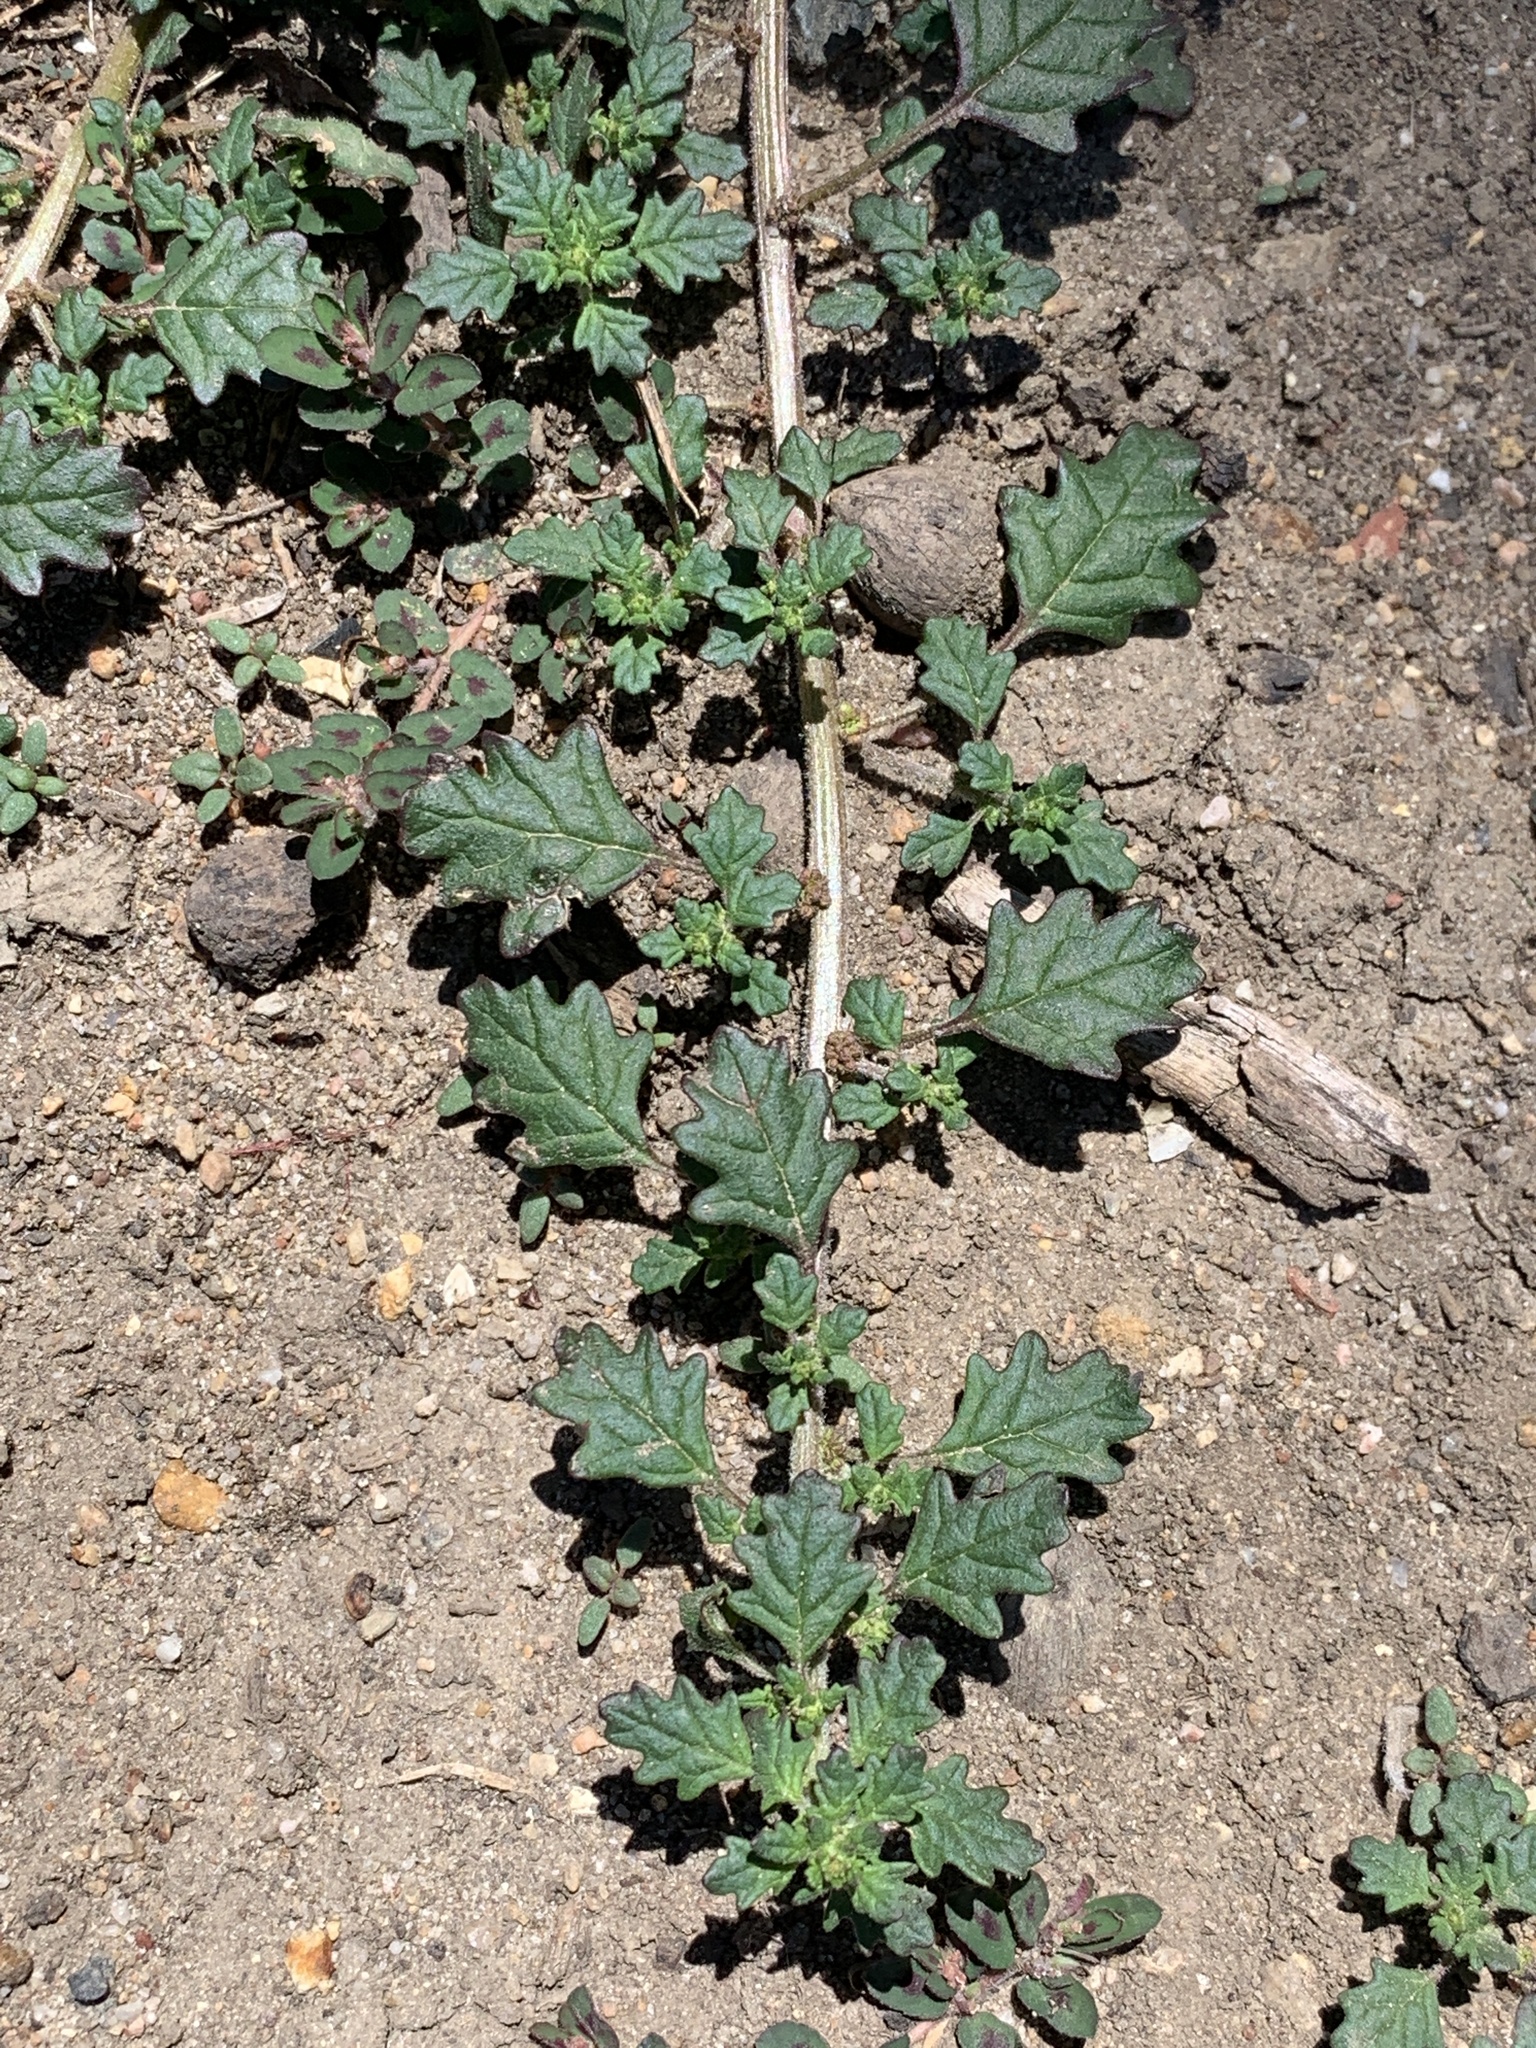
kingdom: Plantae
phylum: Tracheophyta
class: Magnoliopsida
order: Caryophyllales
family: Amaranthaceae
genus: Dysphania
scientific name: Dysphania pumilio
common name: Clammy goosefoot
